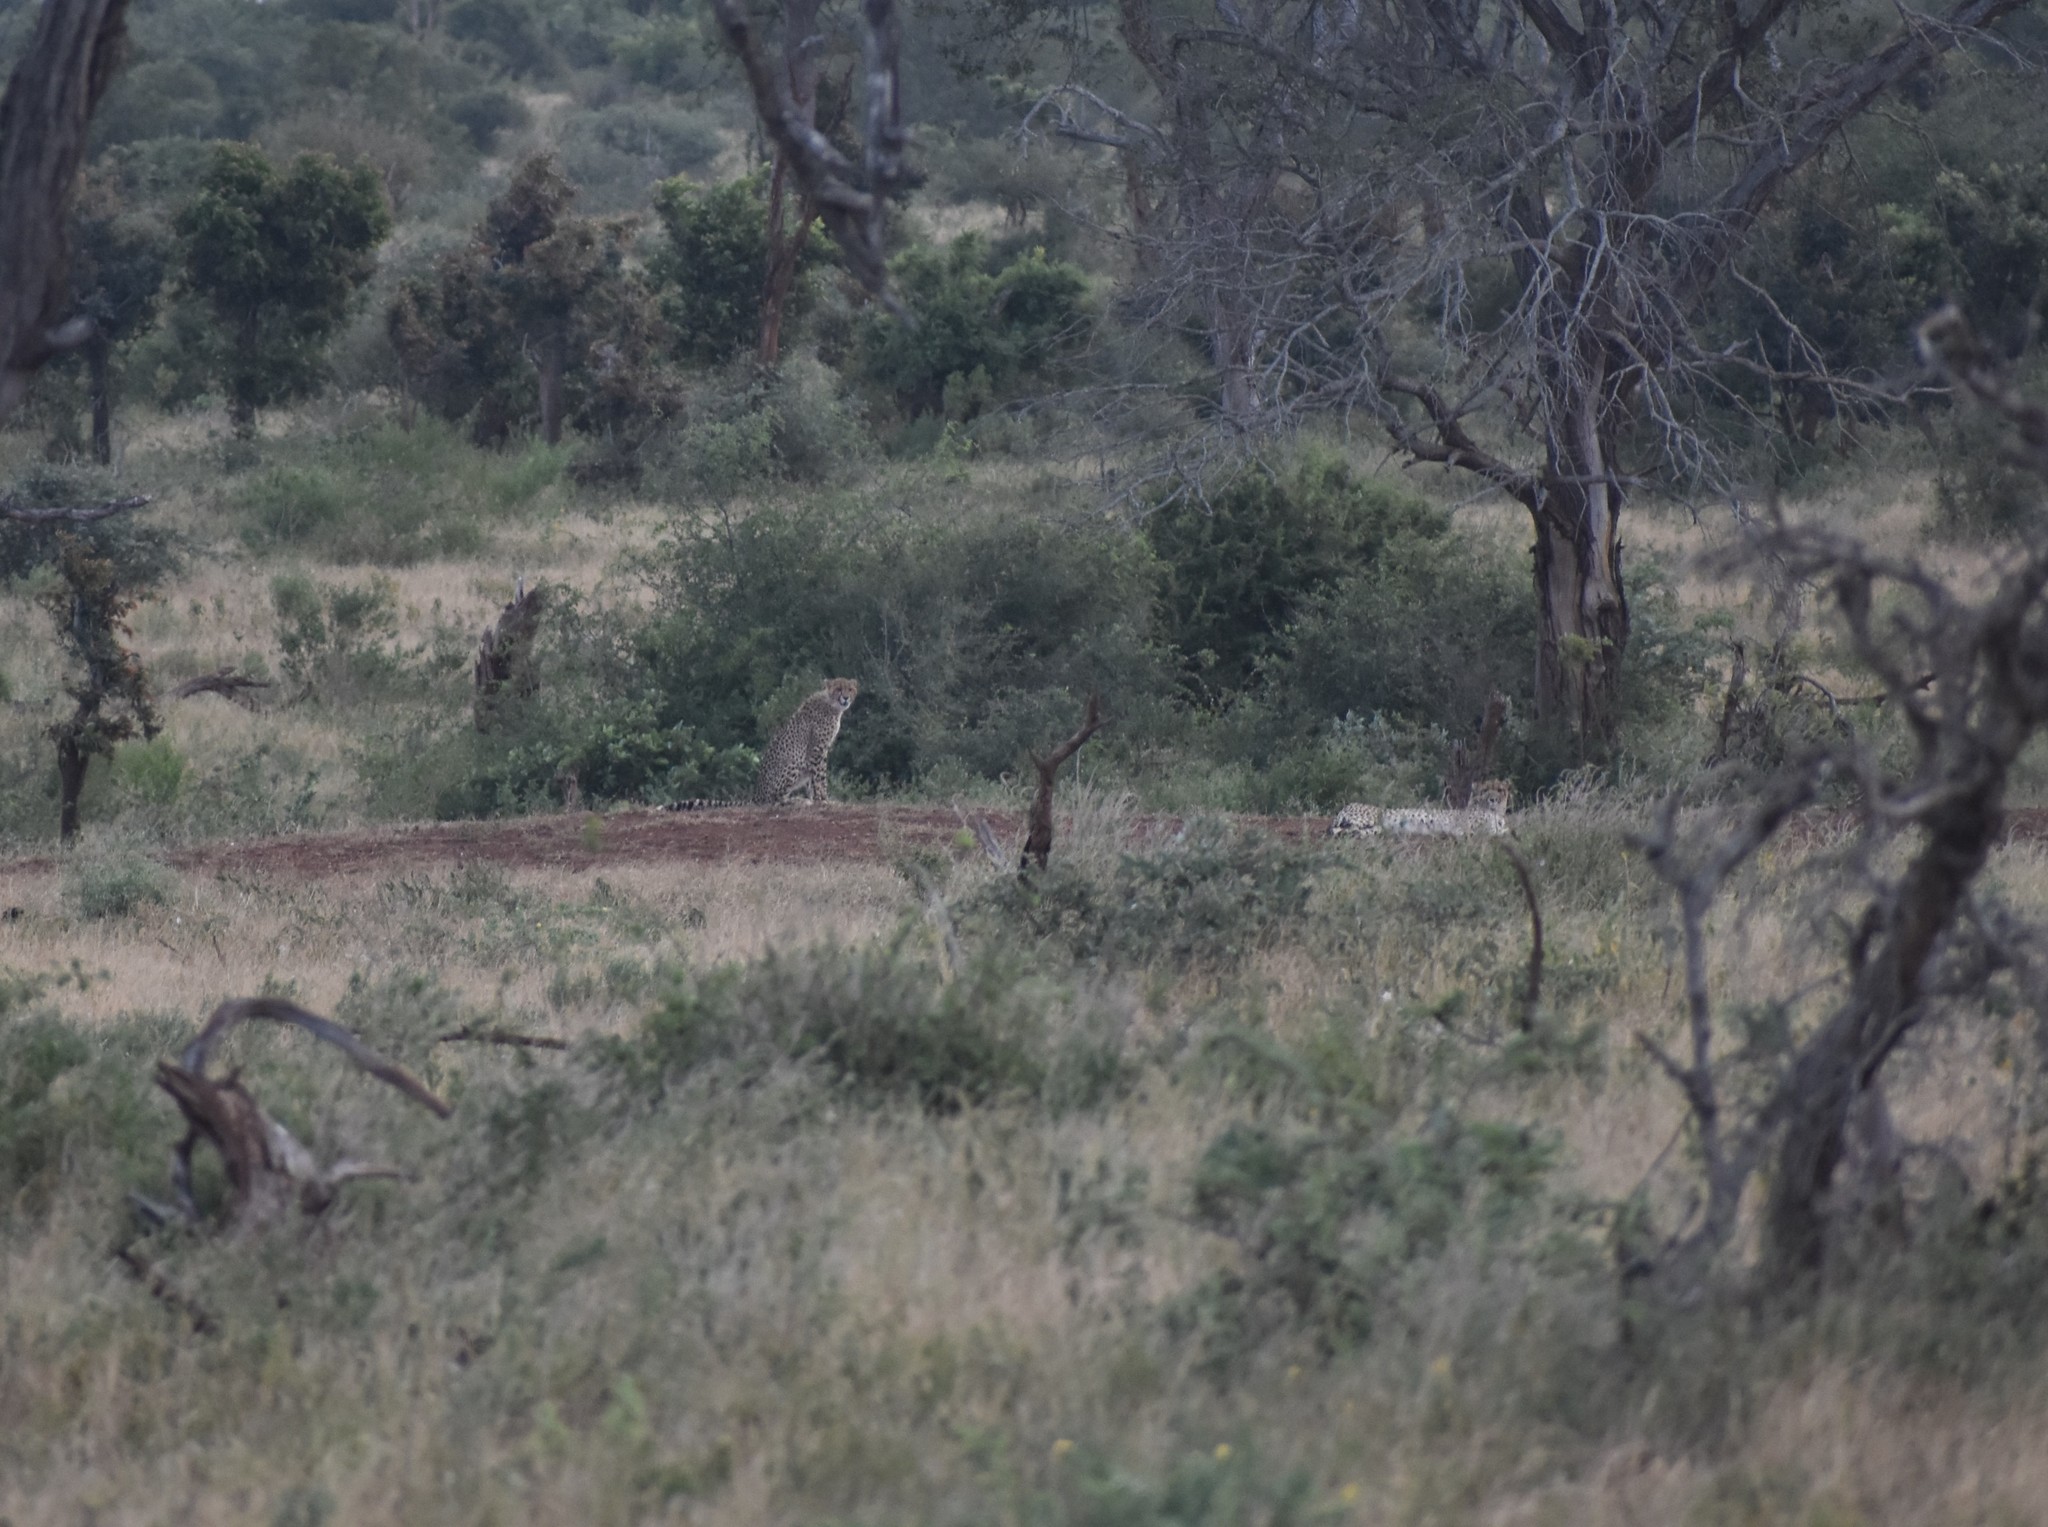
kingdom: Animalia
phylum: Chordata
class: Mammalia
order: Carnivora
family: Felidae
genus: Acinonyx
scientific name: Acinonyx jubatus
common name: Cheetah
